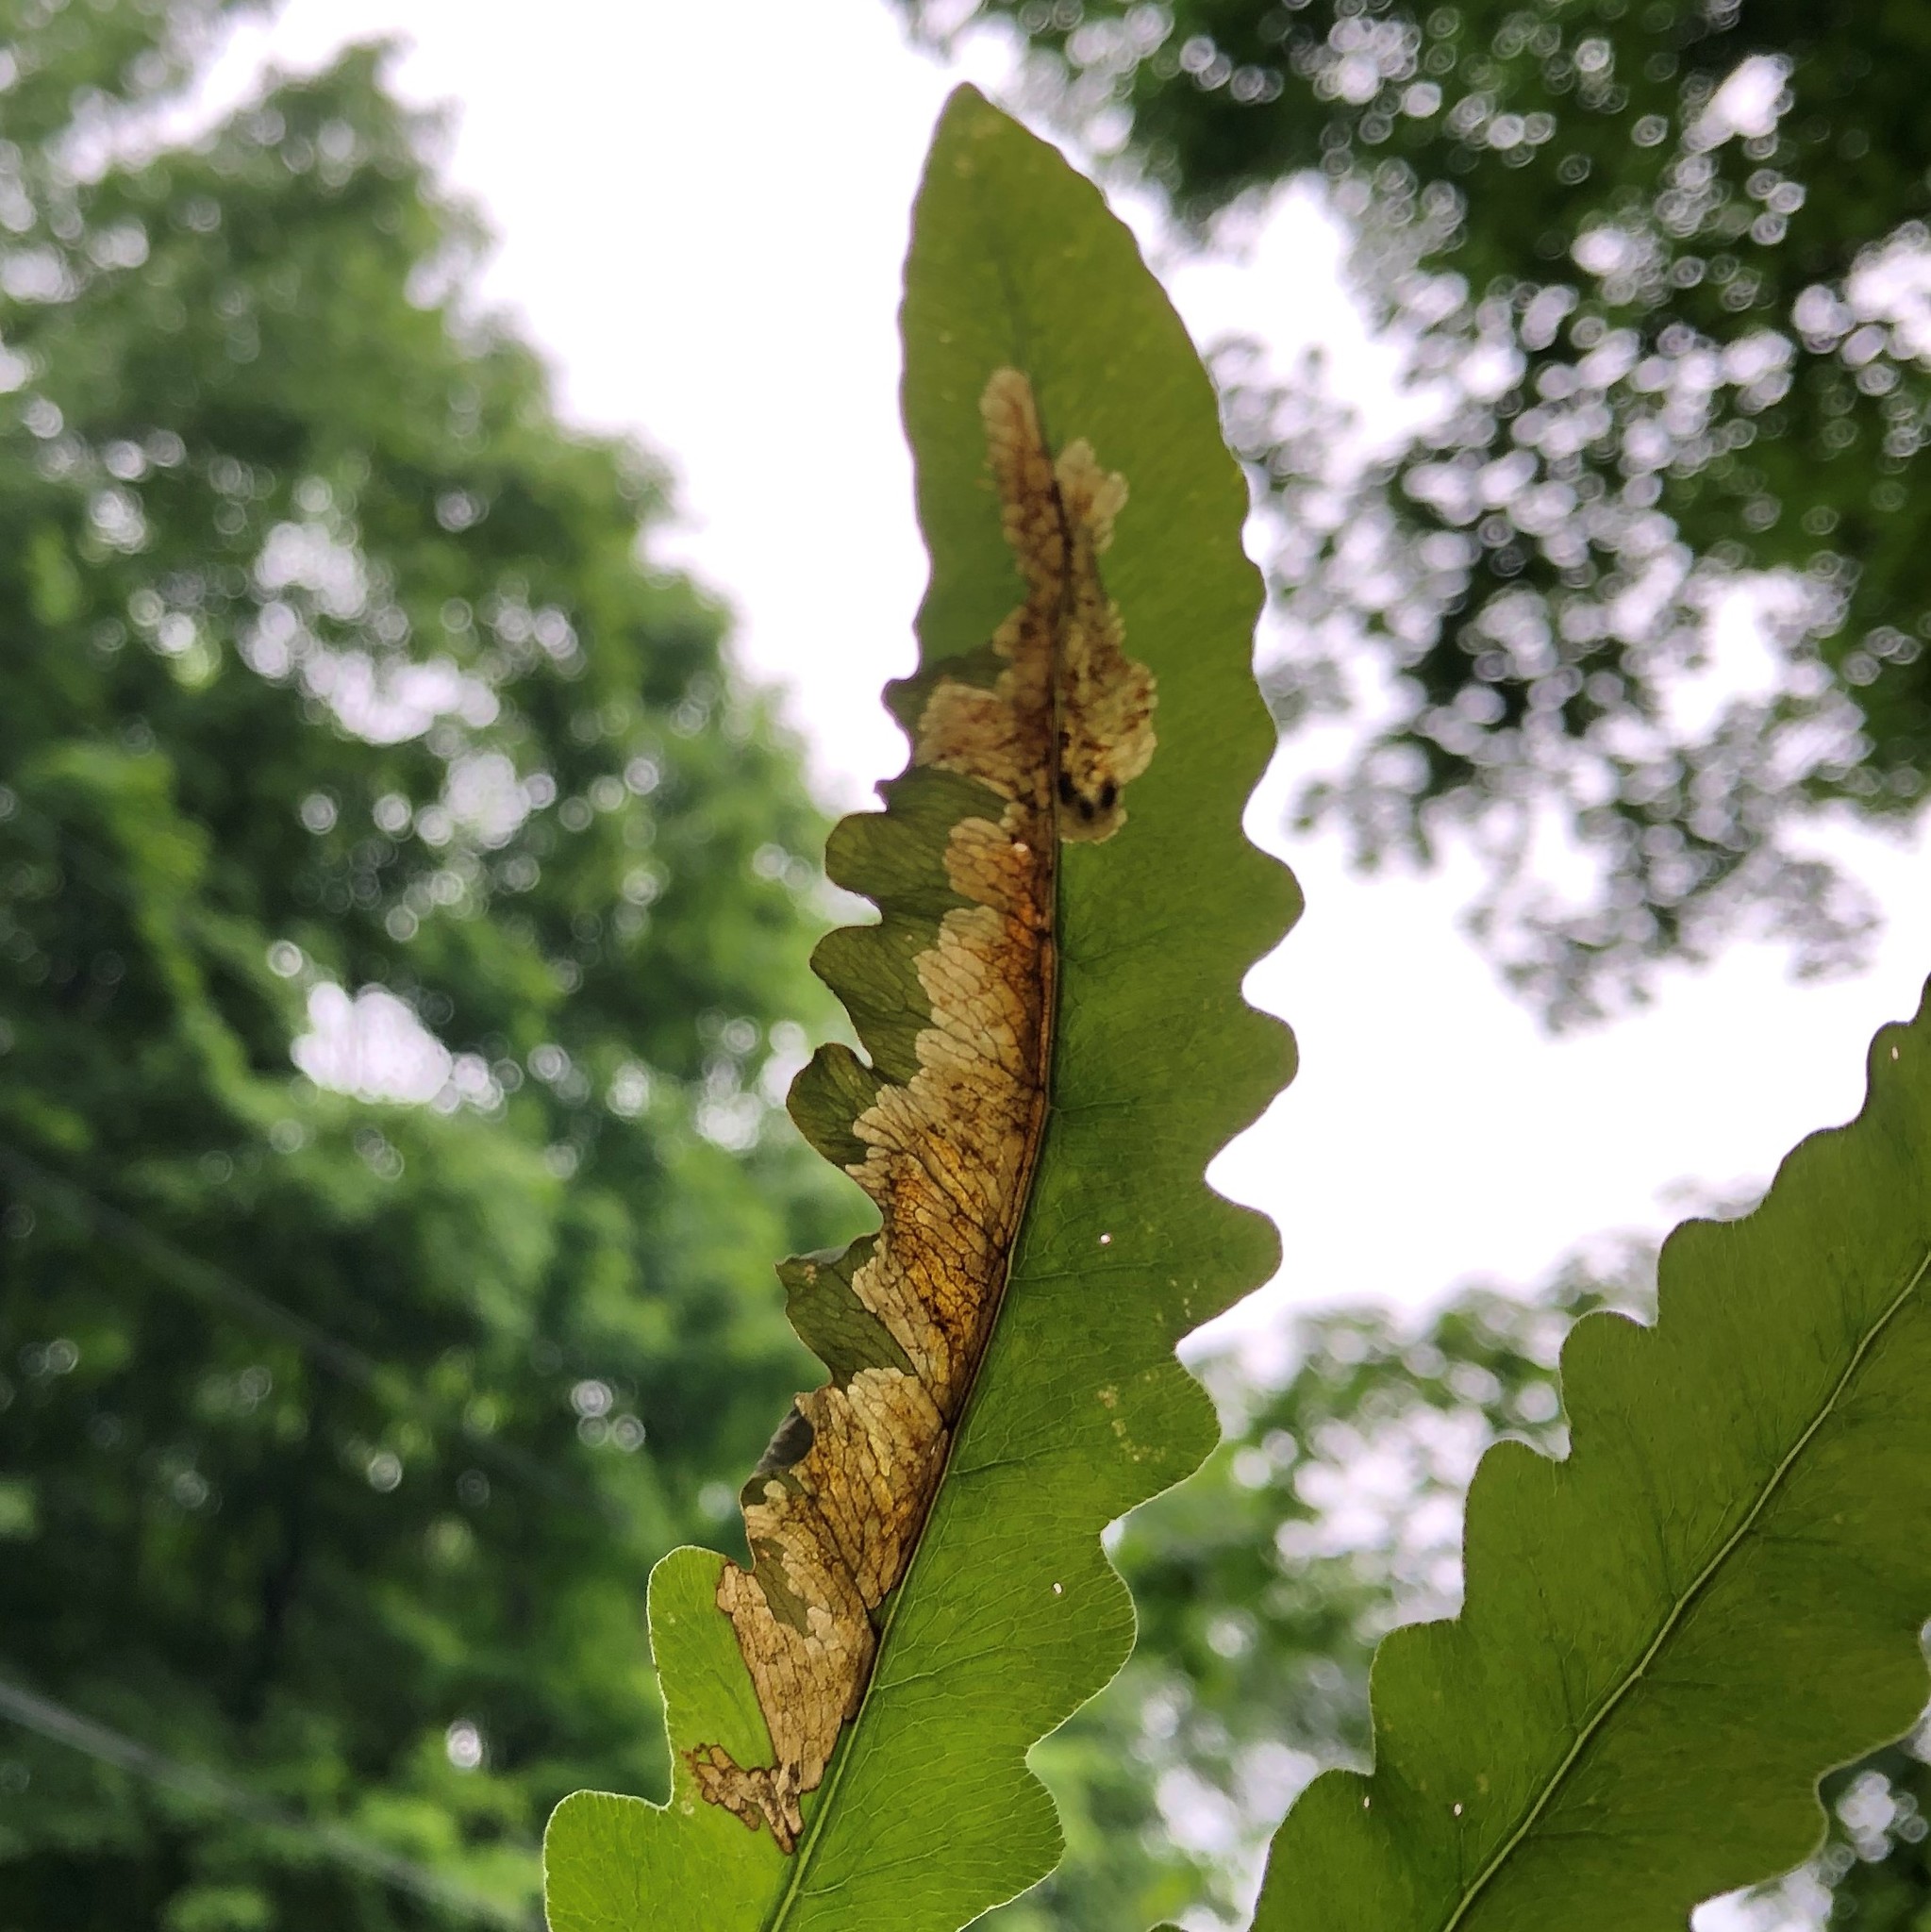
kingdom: Animalia
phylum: Arthropoda
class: Insecta
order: Diptera
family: Anthomyiidae
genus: Chirosia
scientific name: Chirosia gleniensis
